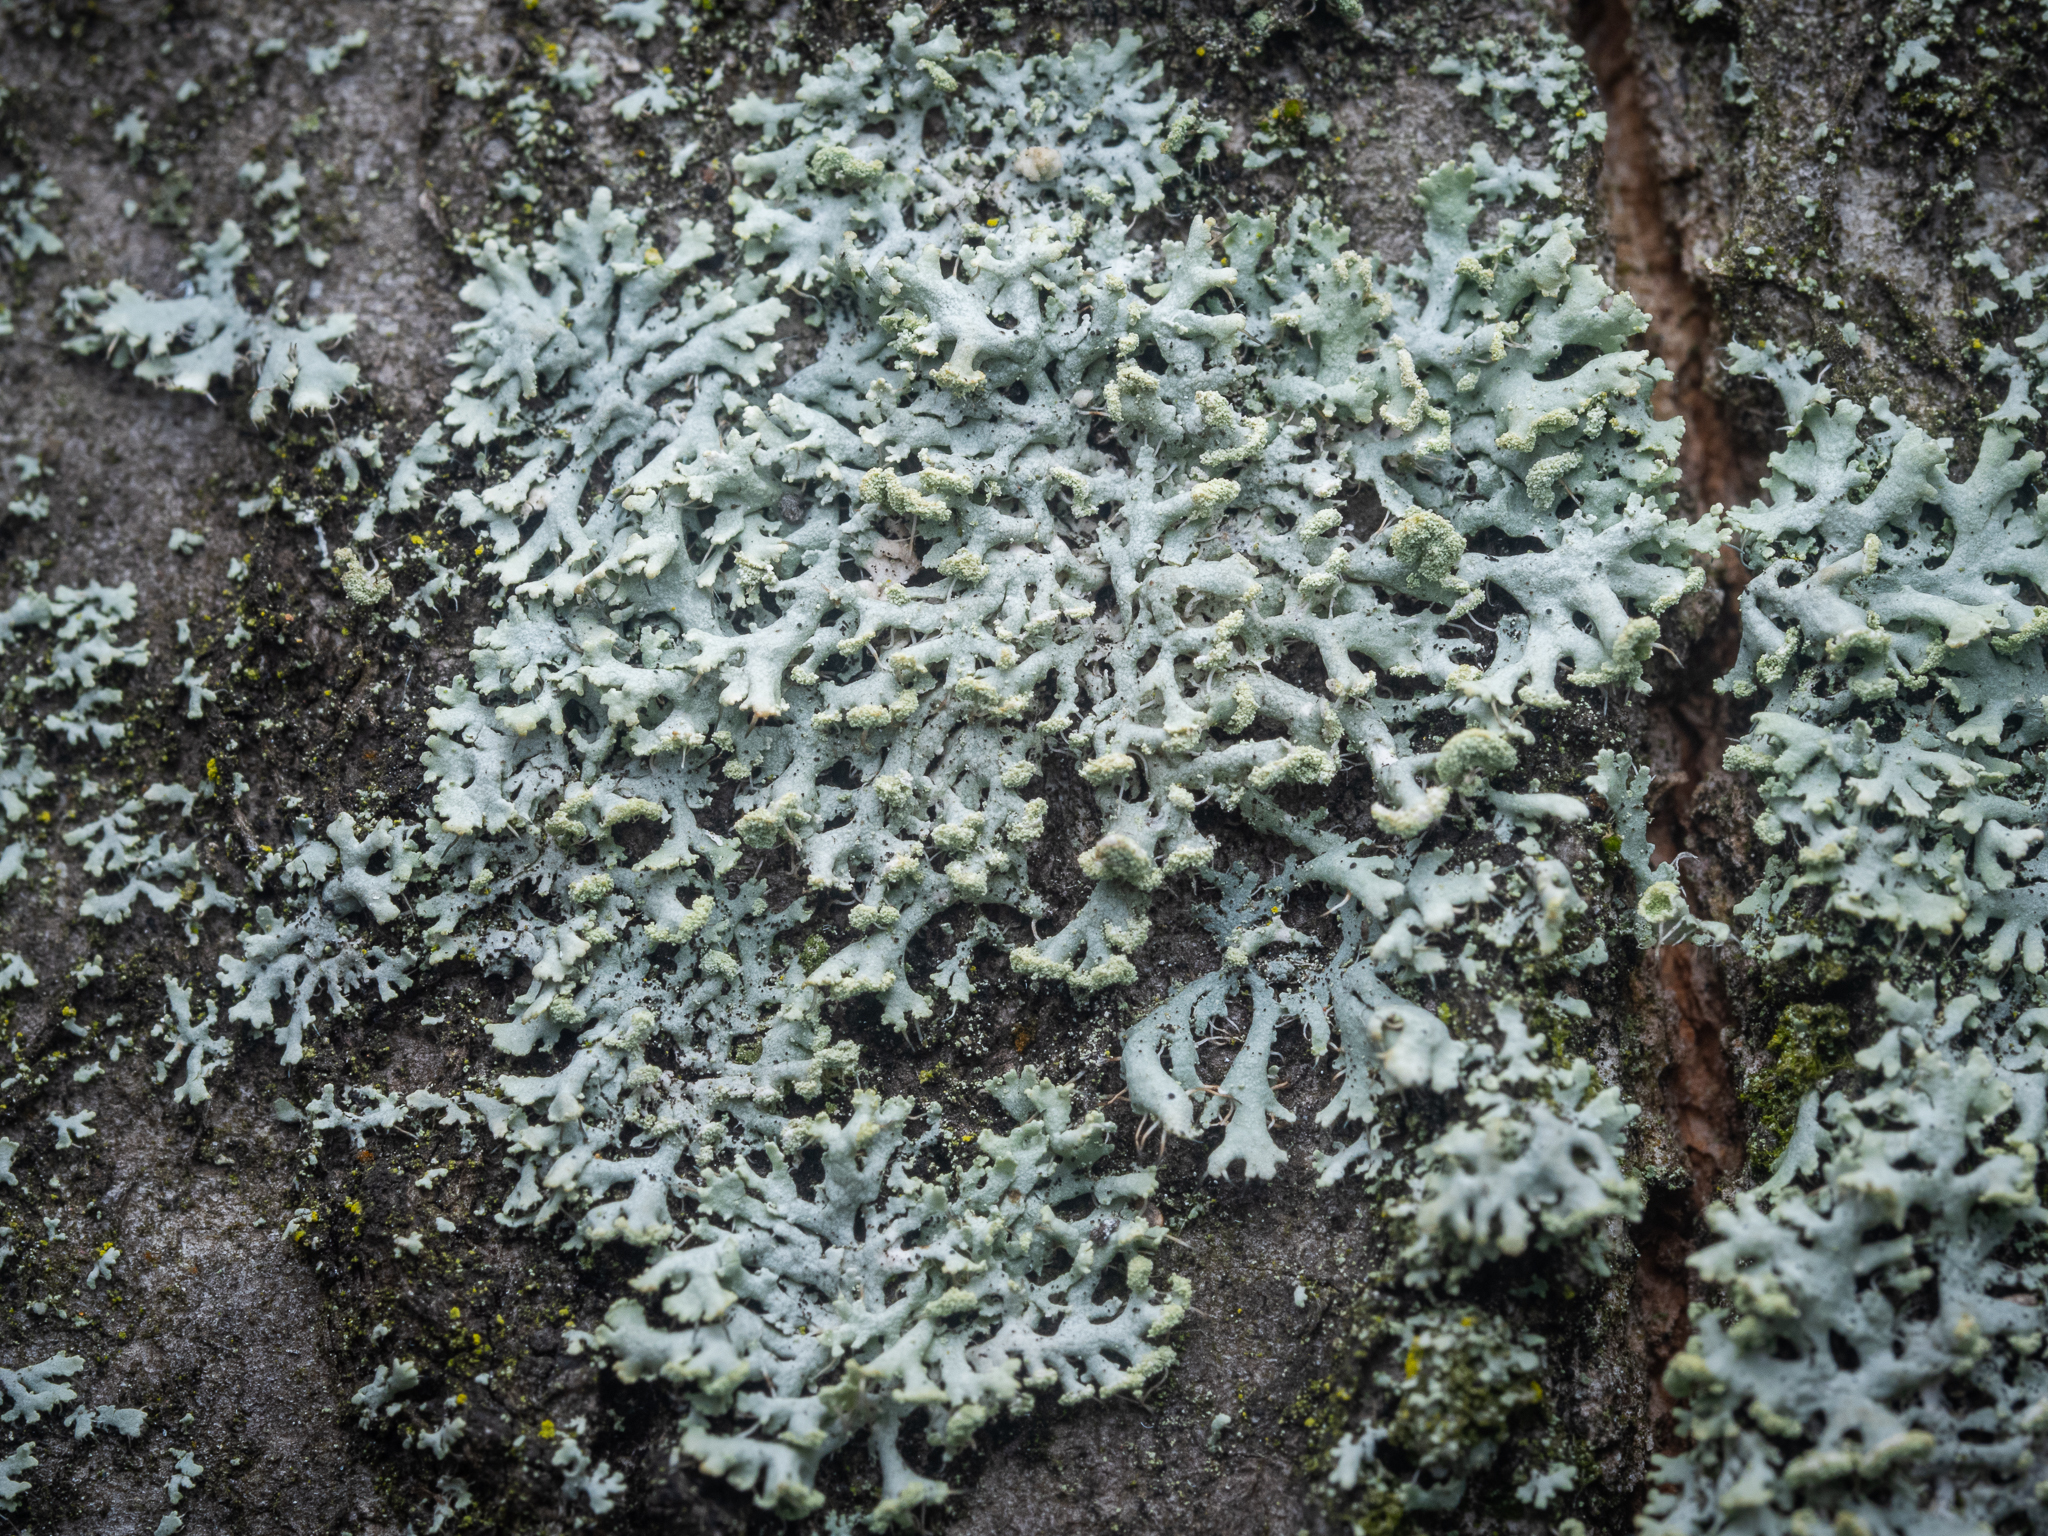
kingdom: Fungi
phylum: Ascomycota
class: Lecanoromycetes
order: Caliciales
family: Physciaceae
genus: Physcia
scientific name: Physcia tenella
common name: Fringed rosette lichen
